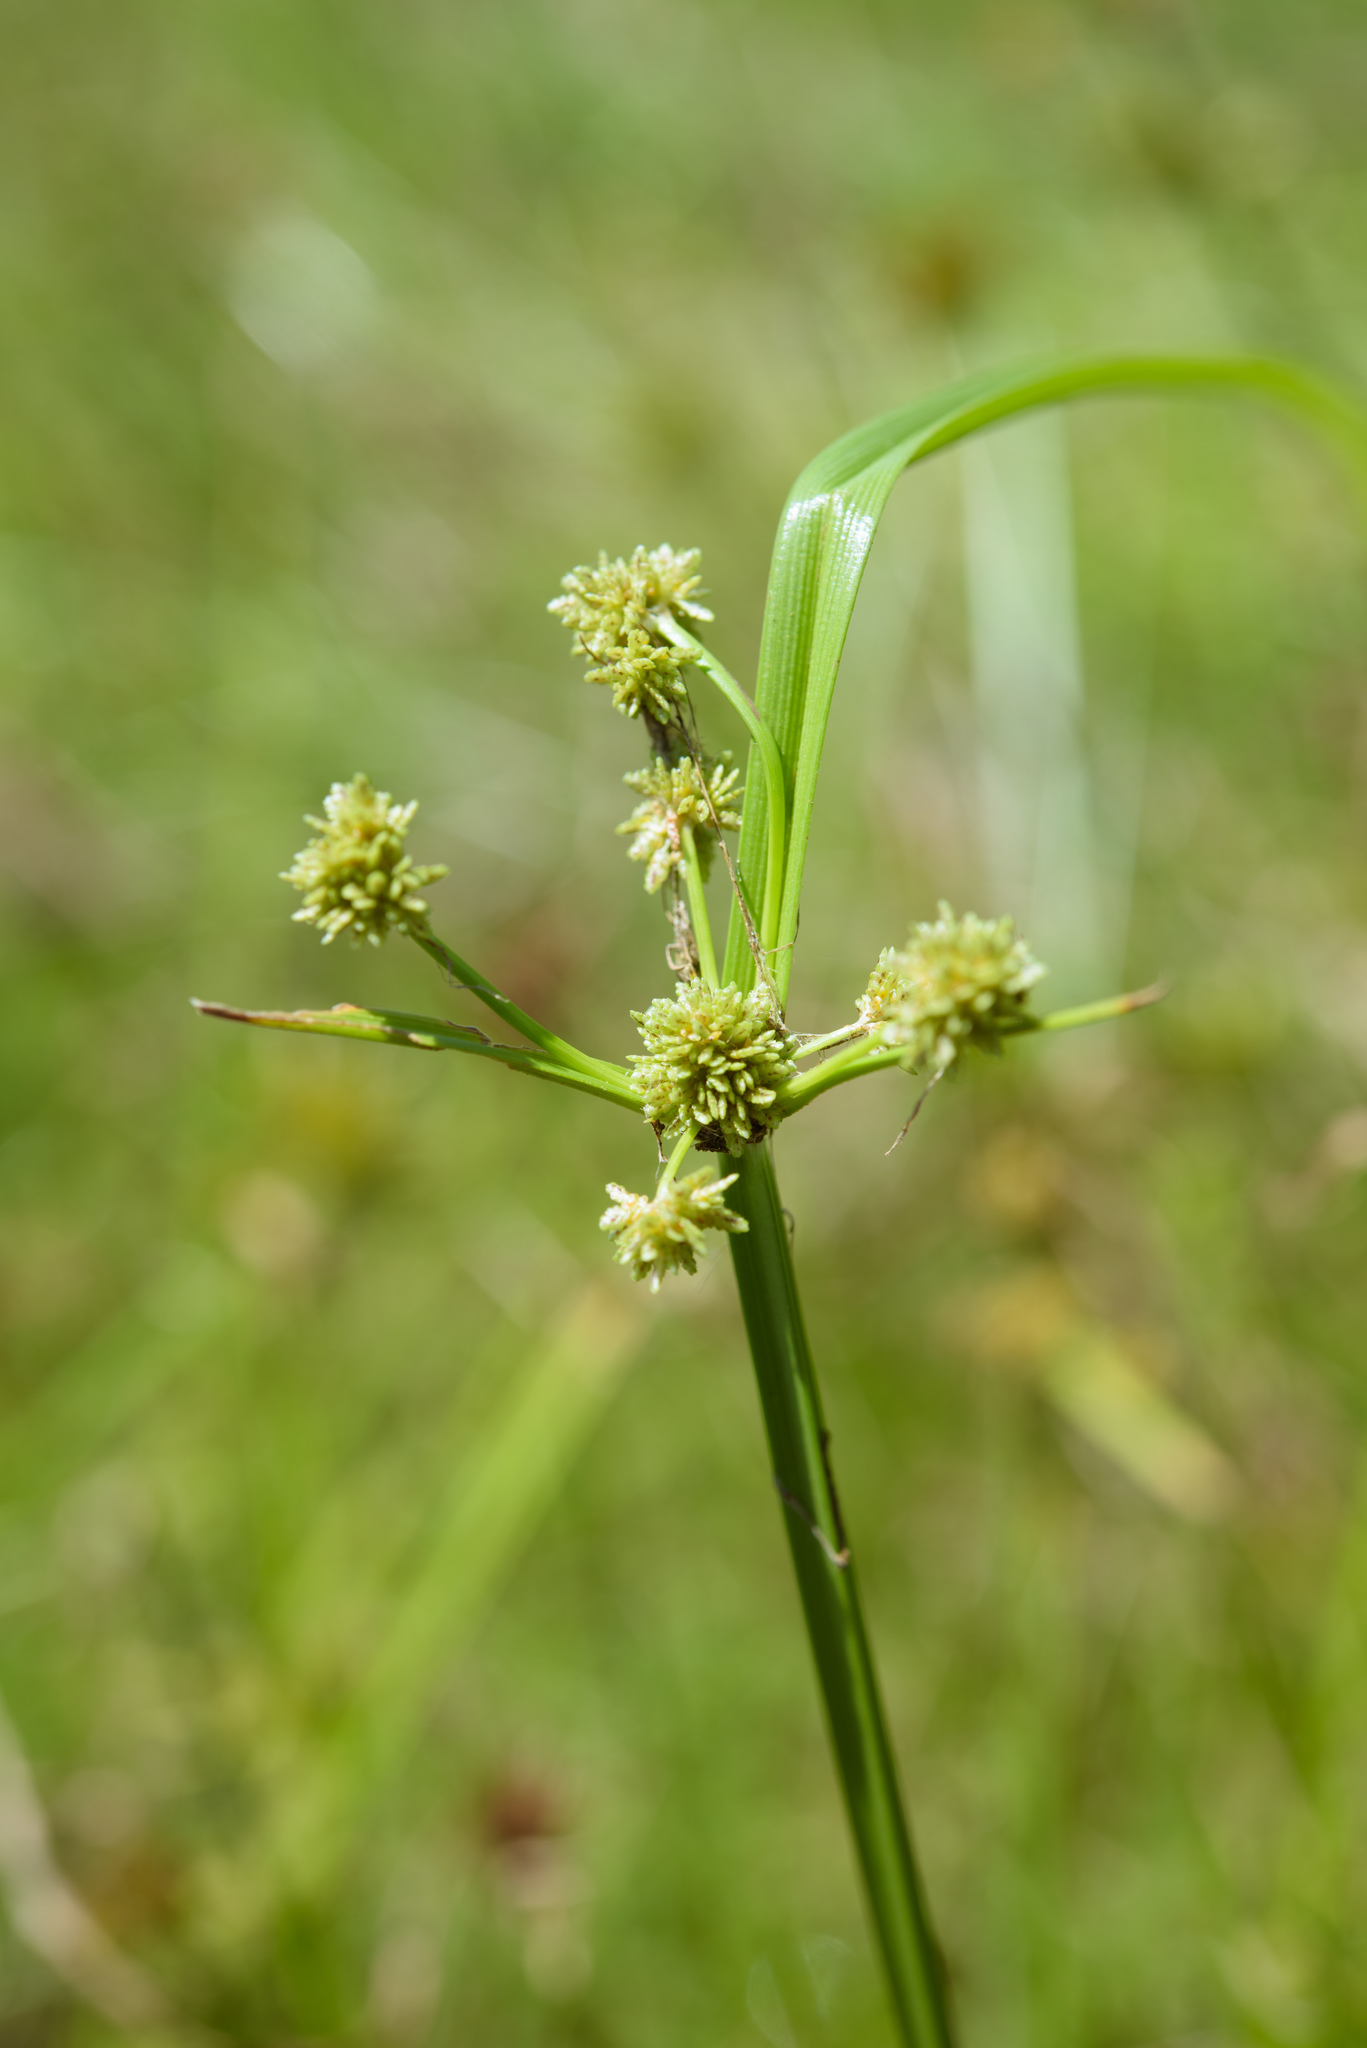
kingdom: Plantae
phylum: Tracheophyta
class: Liliopsida
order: Poales
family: Cyperaceae
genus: Cyperus
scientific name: Cyperus difformis
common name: Variable flatsedge
